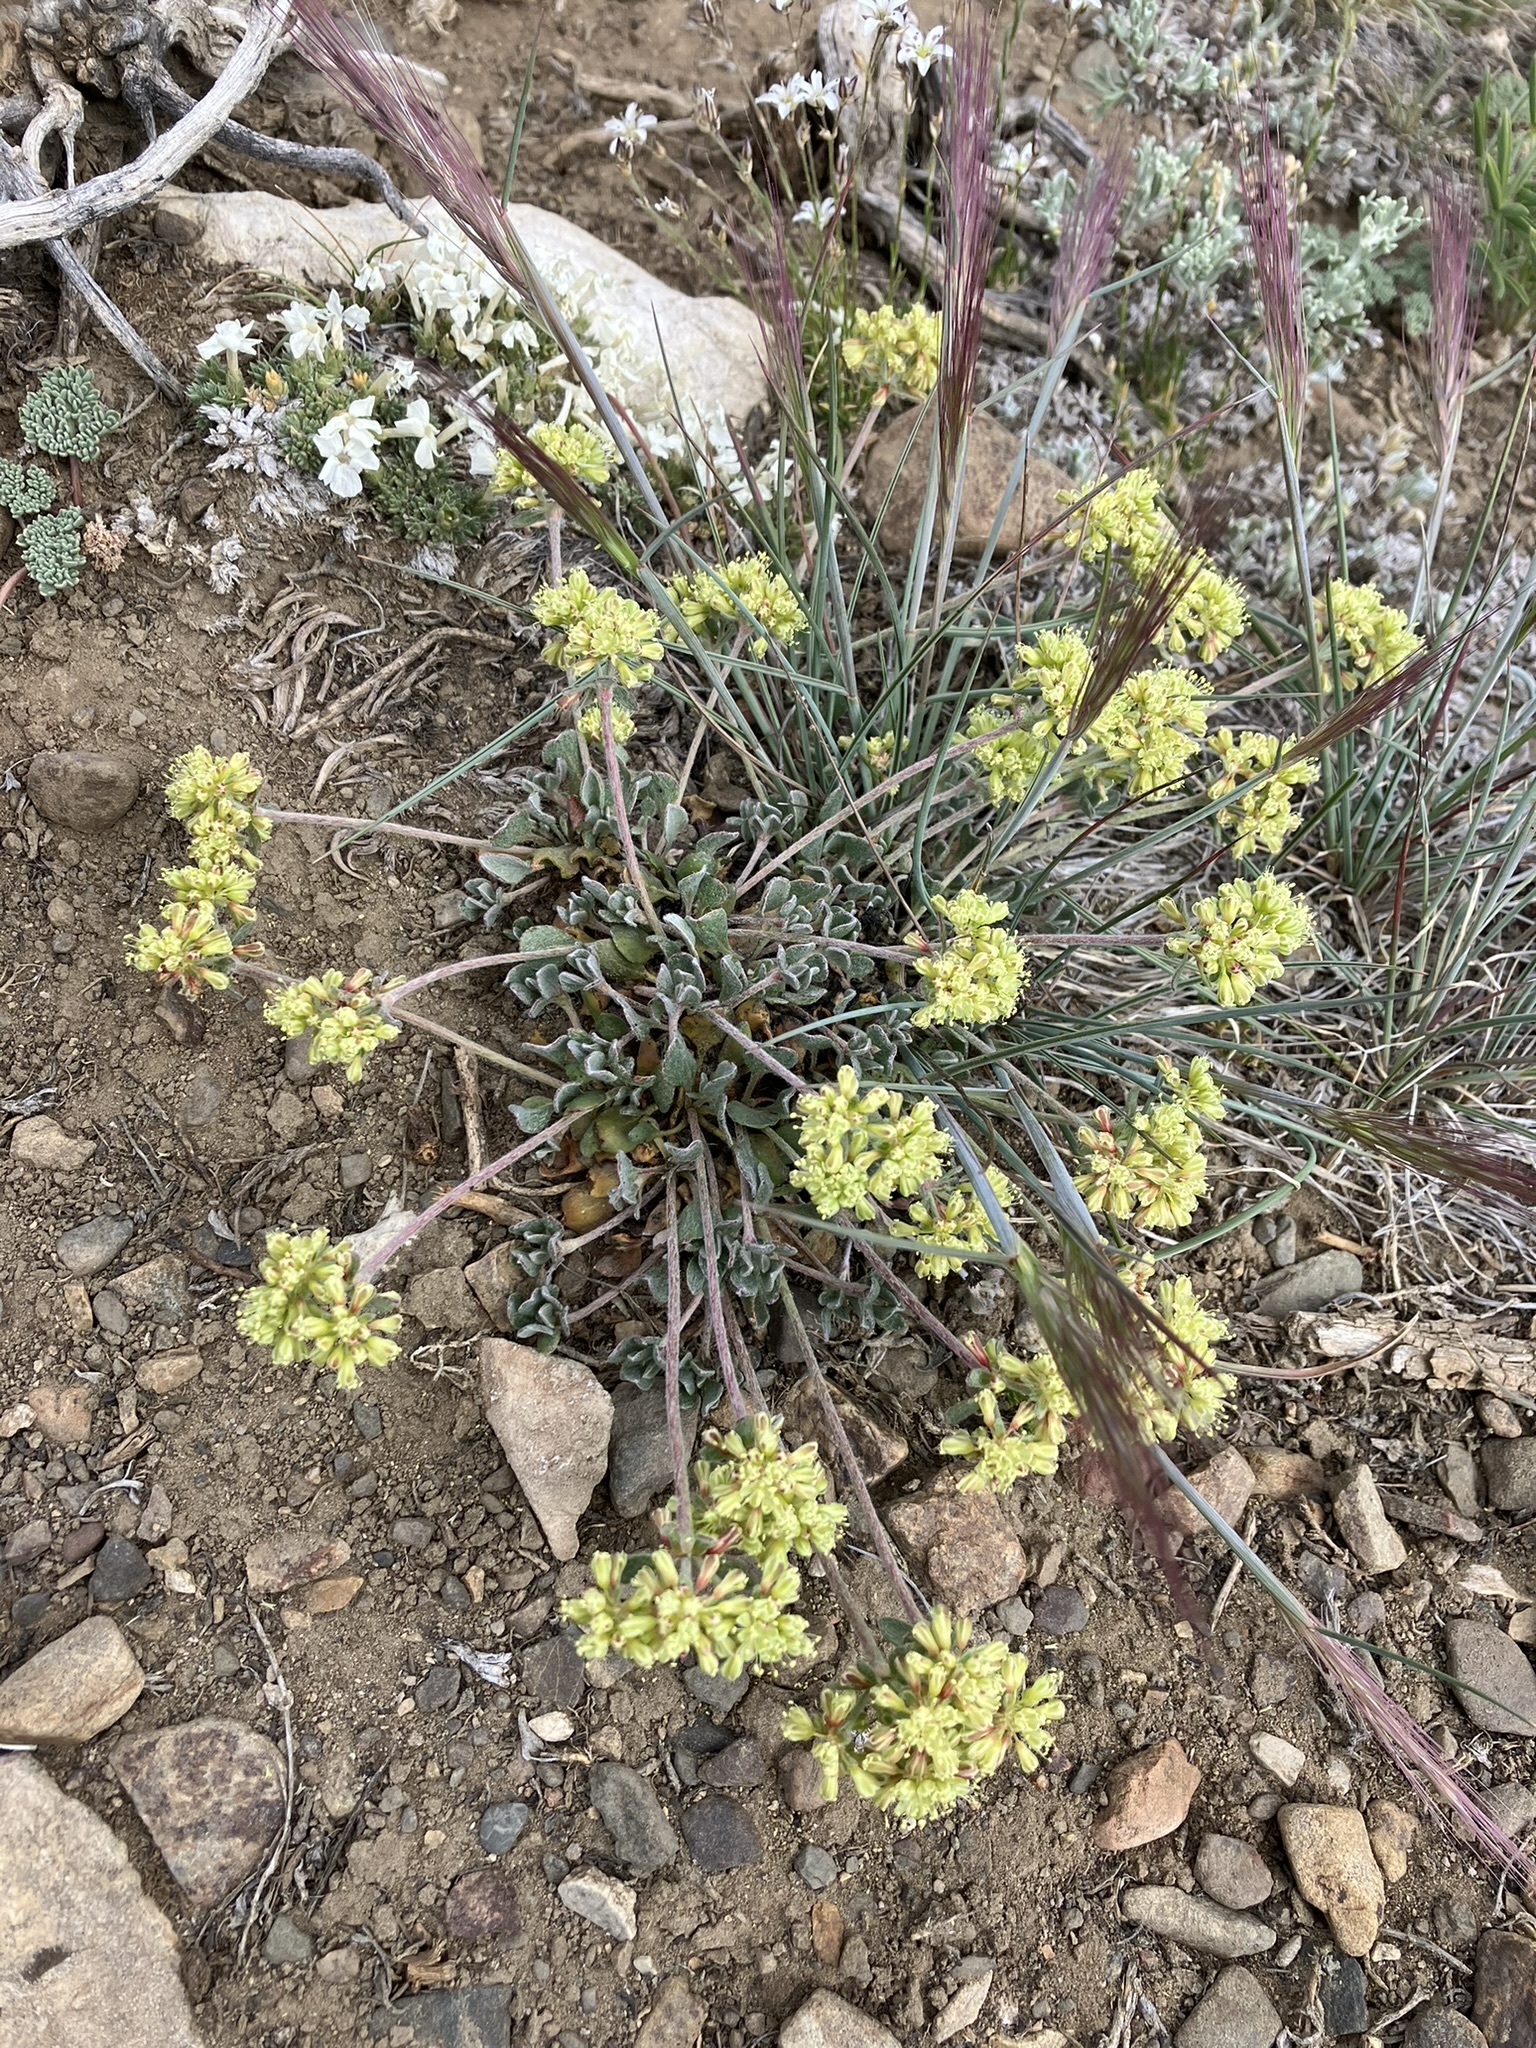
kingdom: Plantae
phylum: Tracheophyta
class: Magnoliopsida
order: Caryophyllales
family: Polygonaceae
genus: Eriogonum
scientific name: Eriogonum umbellatum
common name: Sulfur-buckwheat
